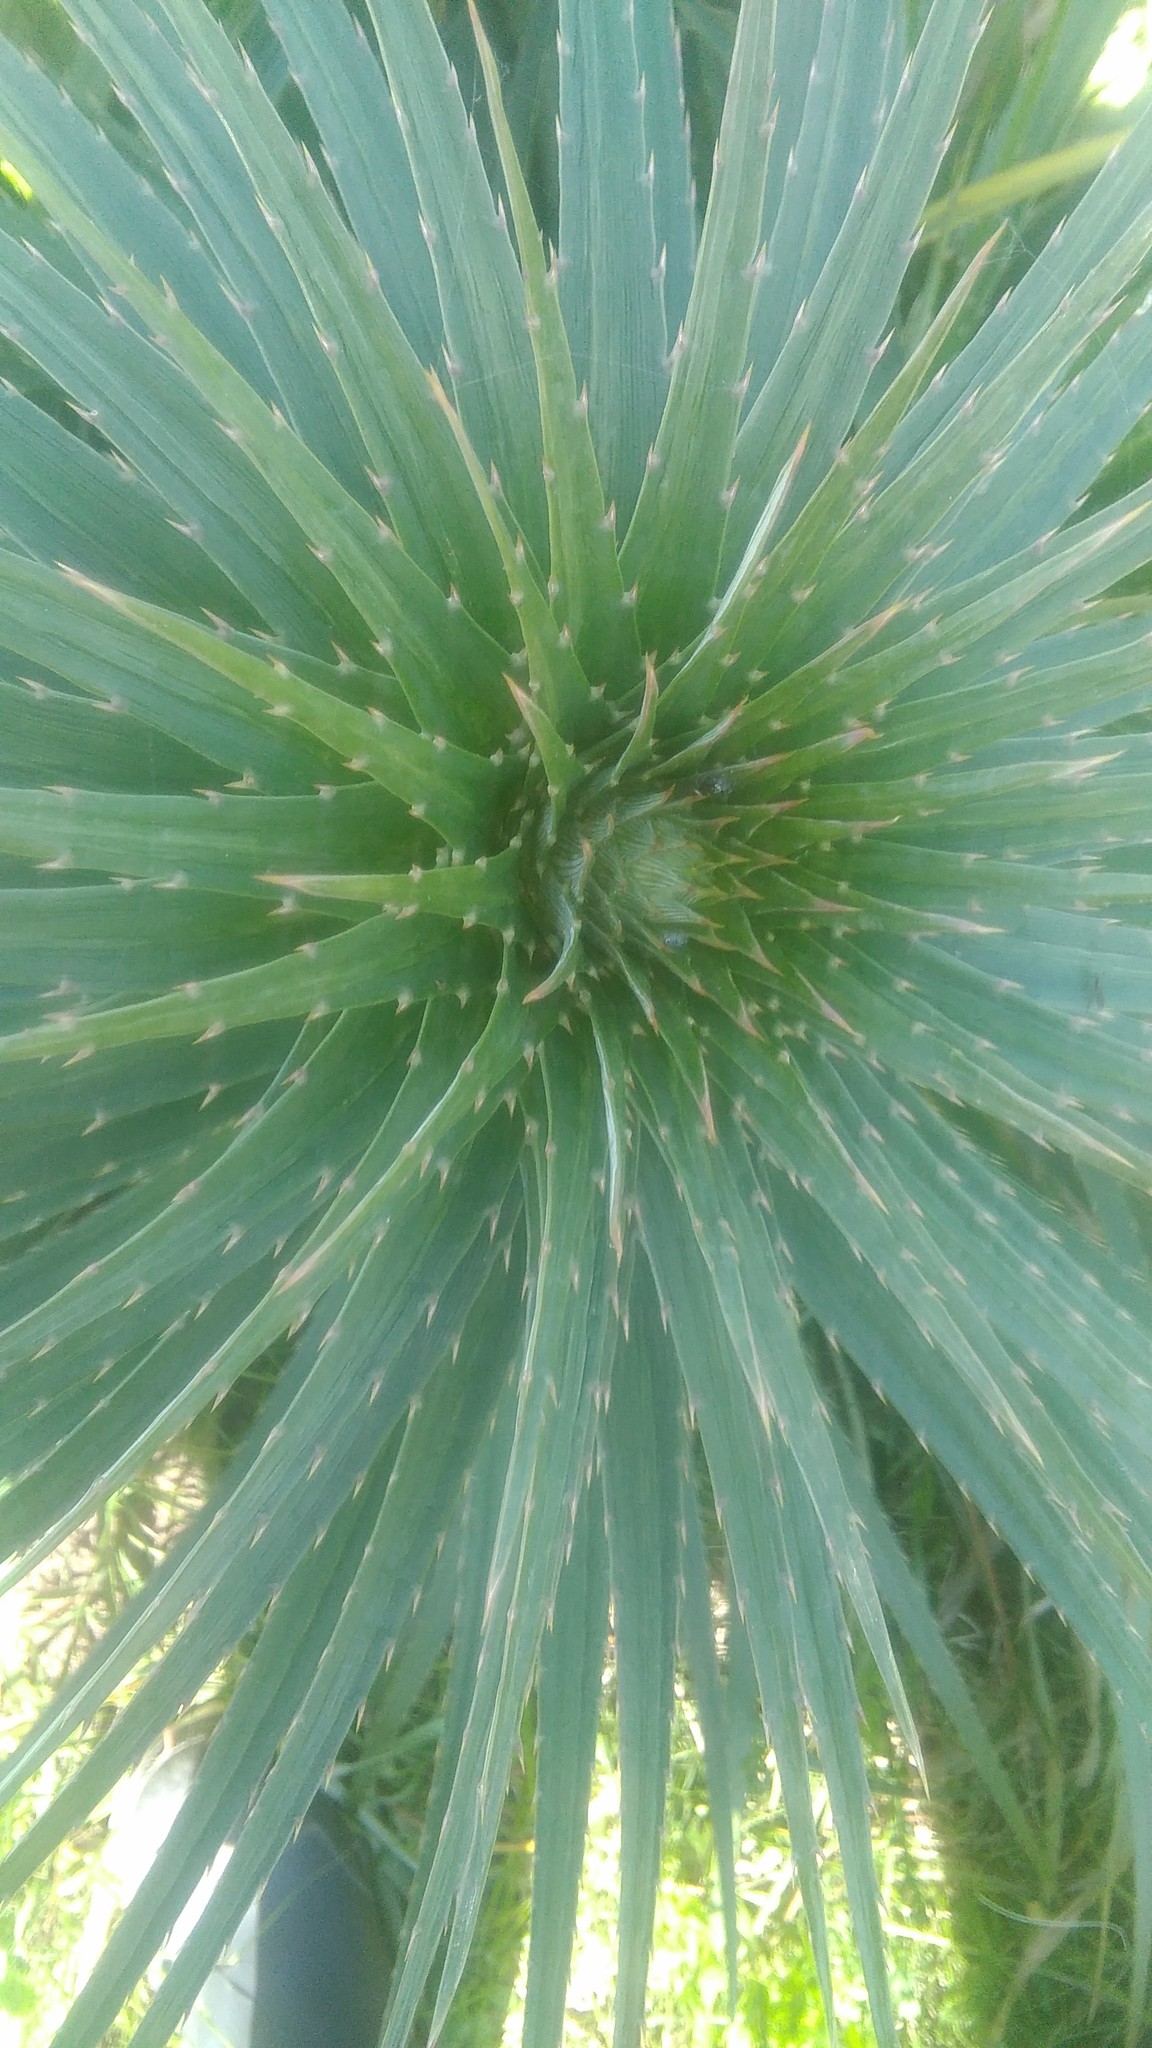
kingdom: Plantae
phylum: Tracheophyta
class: Magnoliopsida
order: Apiales
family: Apiaceae
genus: Eryngium
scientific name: Eryngium eburneum
